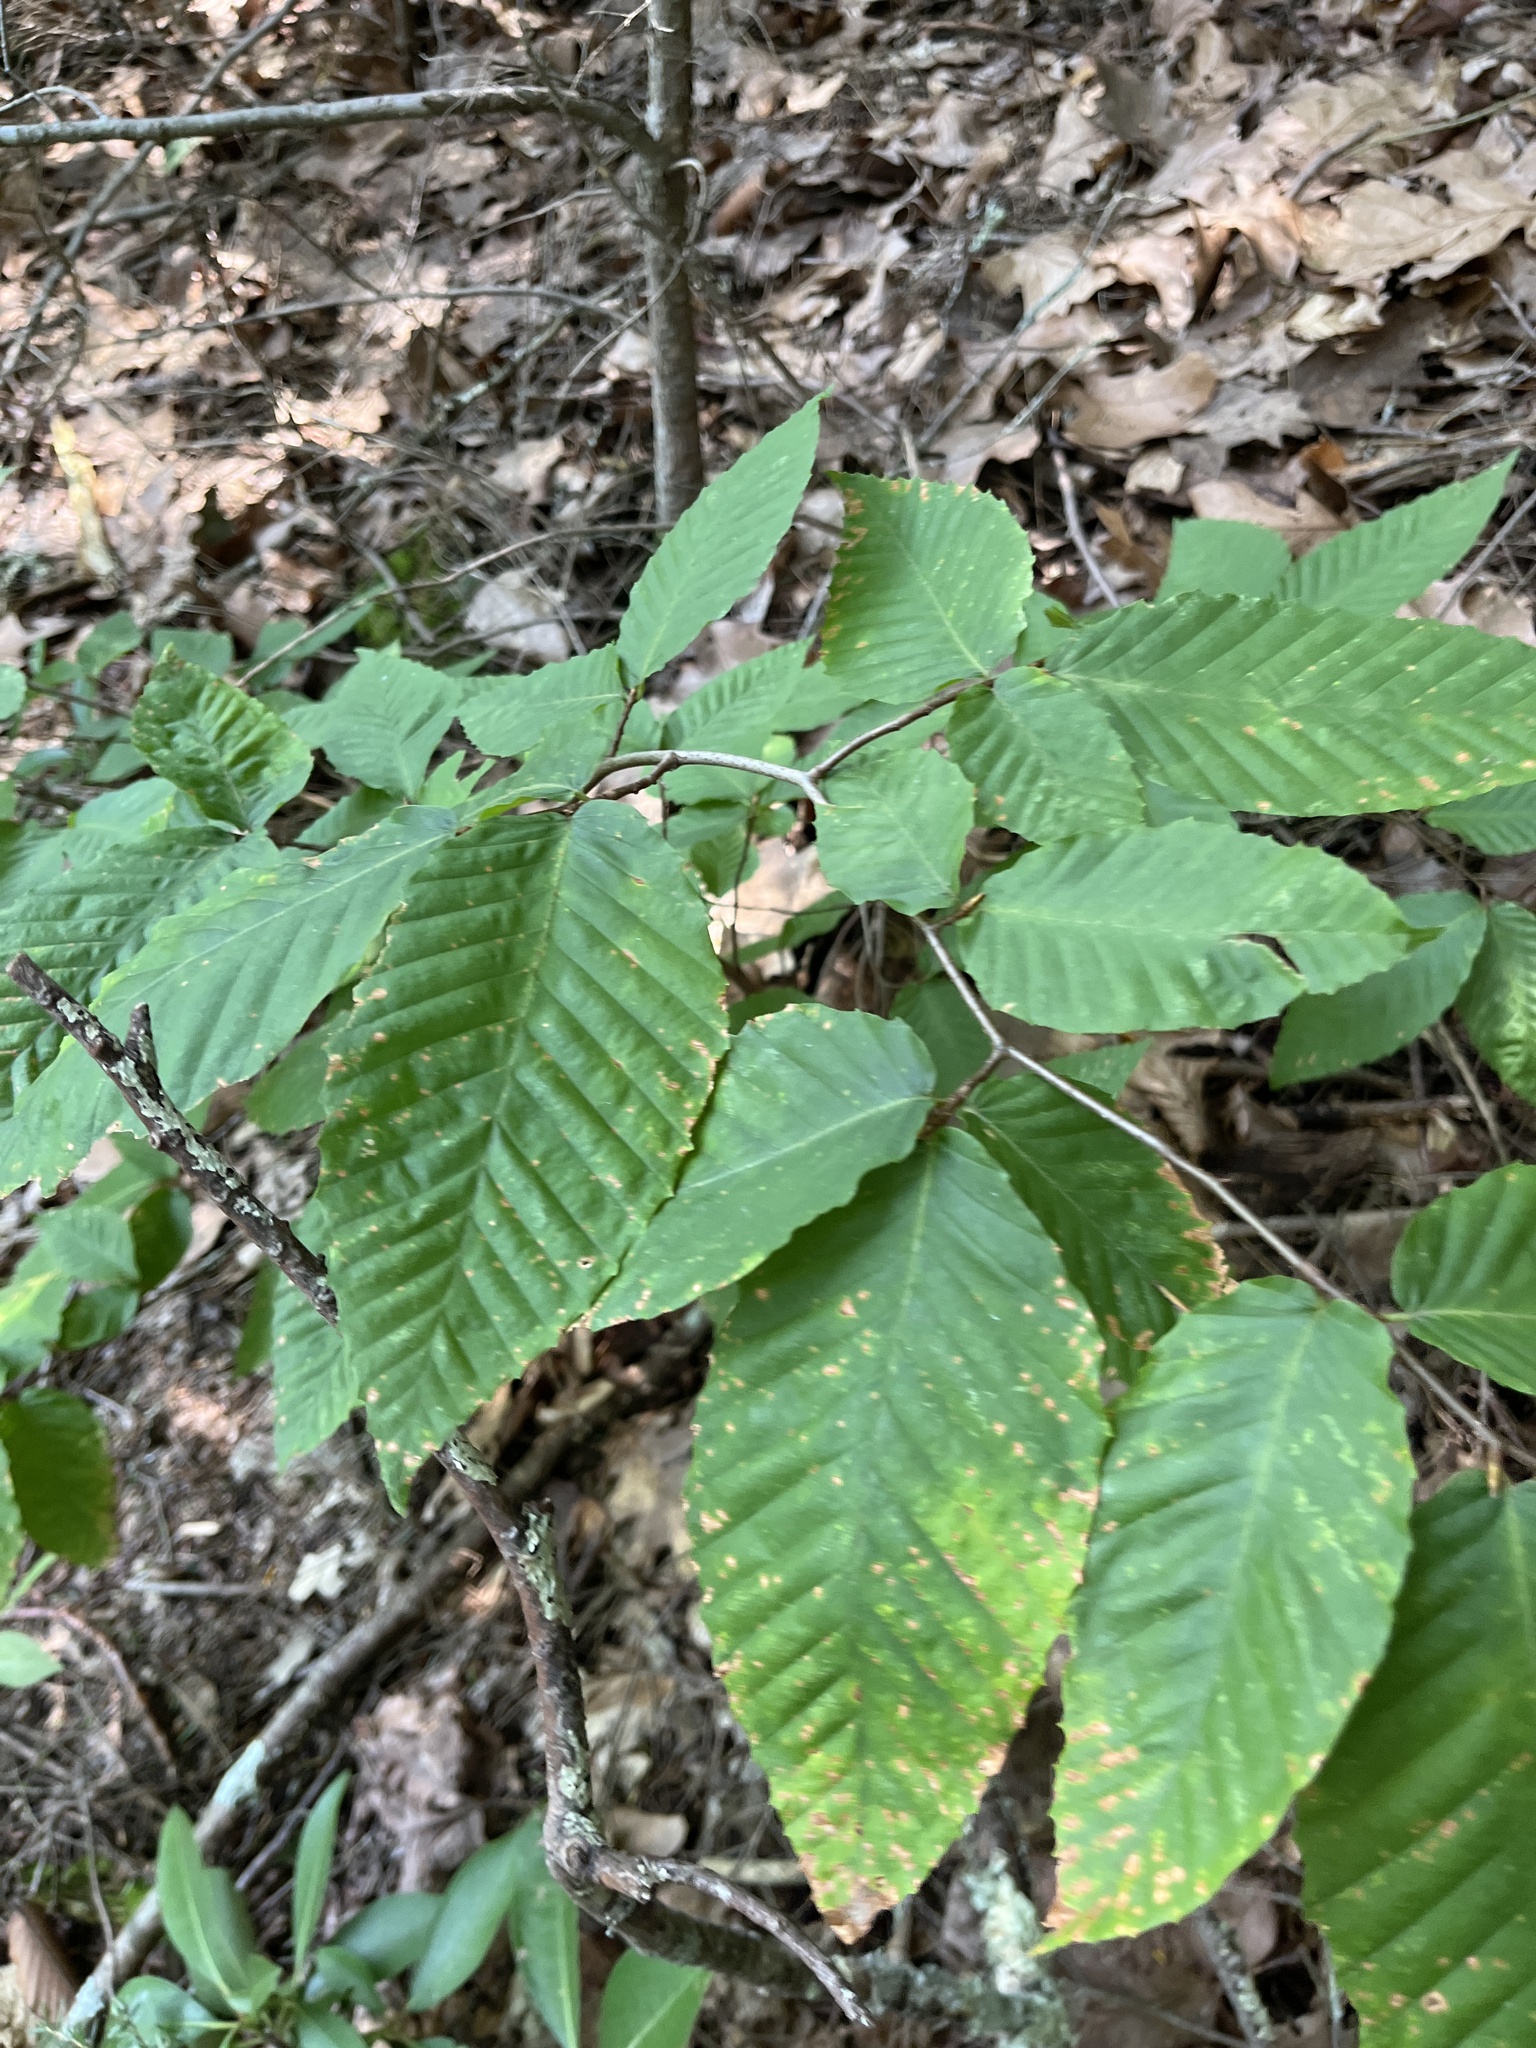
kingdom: Plantae
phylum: Tracheophyta
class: Magnoliopsida
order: Fagales
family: Fagaceae
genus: Fagus
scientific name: Fagus grandifolia
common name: American beech
